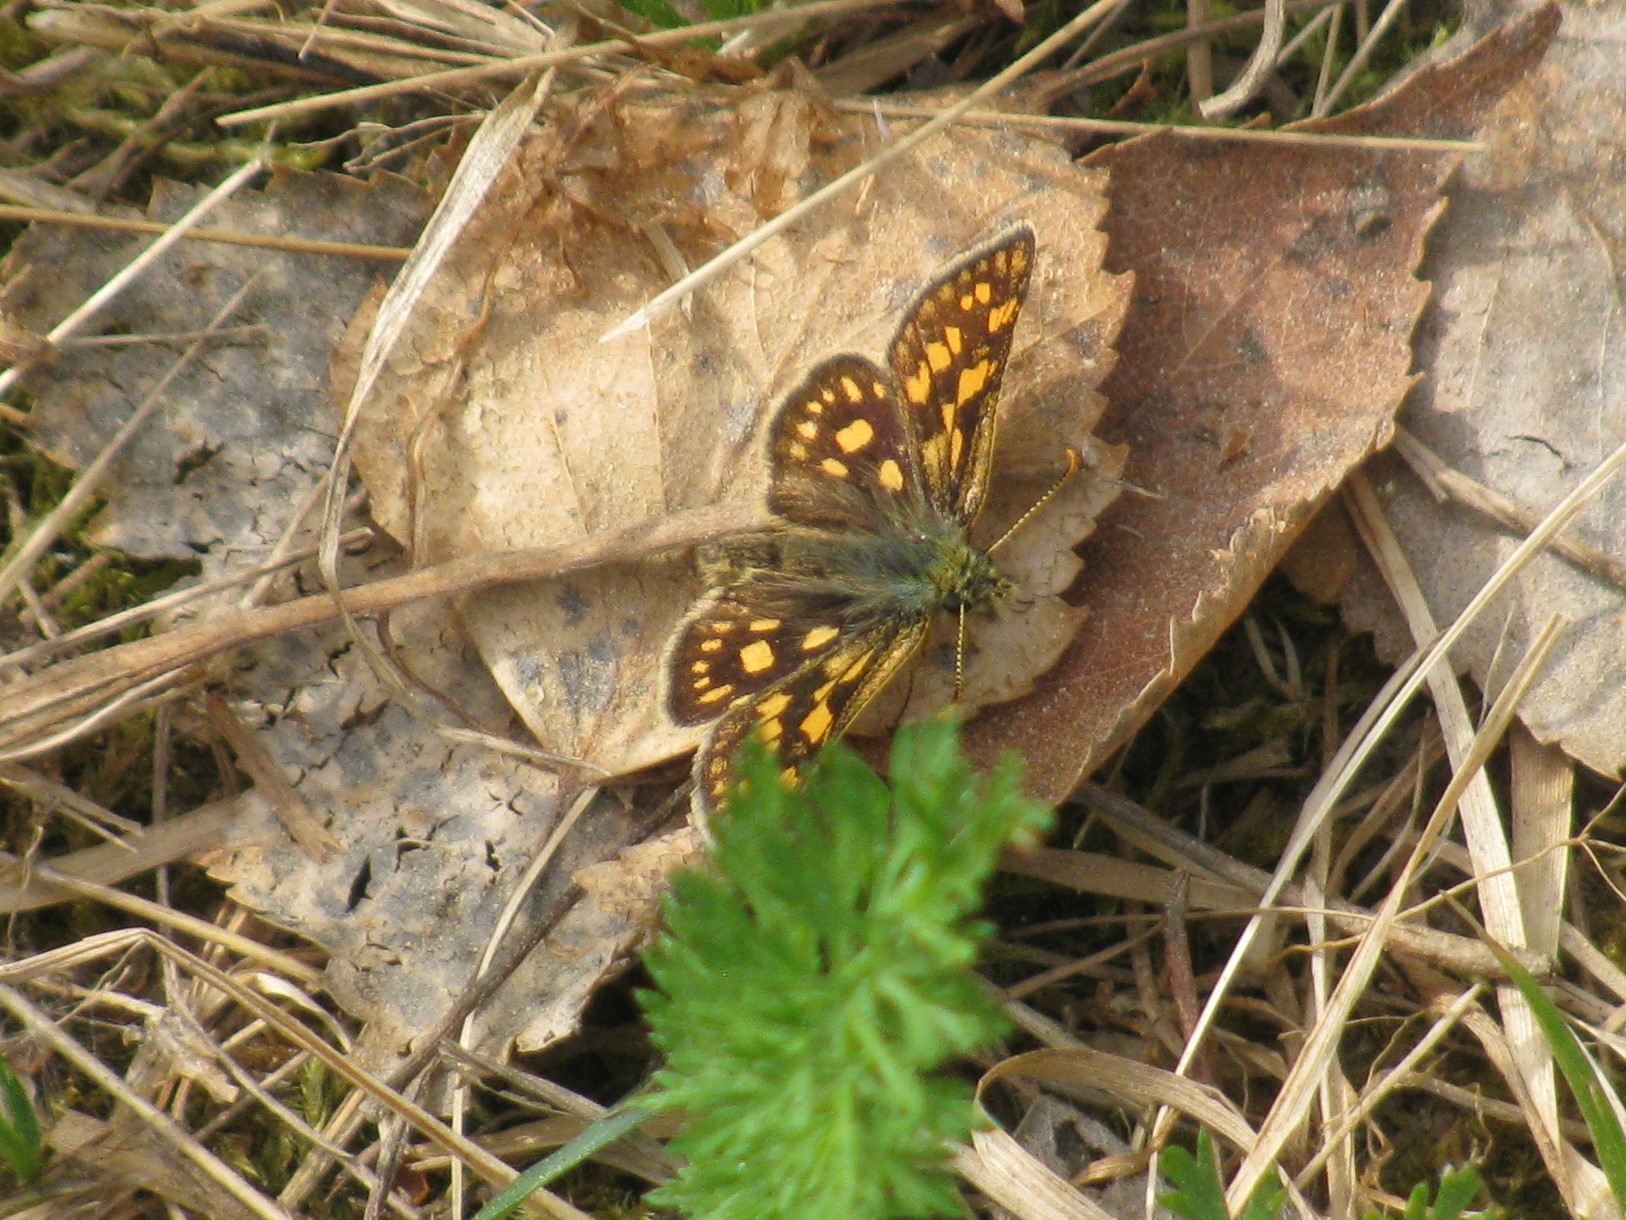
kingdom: Animalia
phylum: Arthropoda
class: Insecta
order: Lepidoptera
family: Hesperiidae
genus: Carterocephalus
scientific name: Carterocephalus palaemon
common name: Chequered skipper
